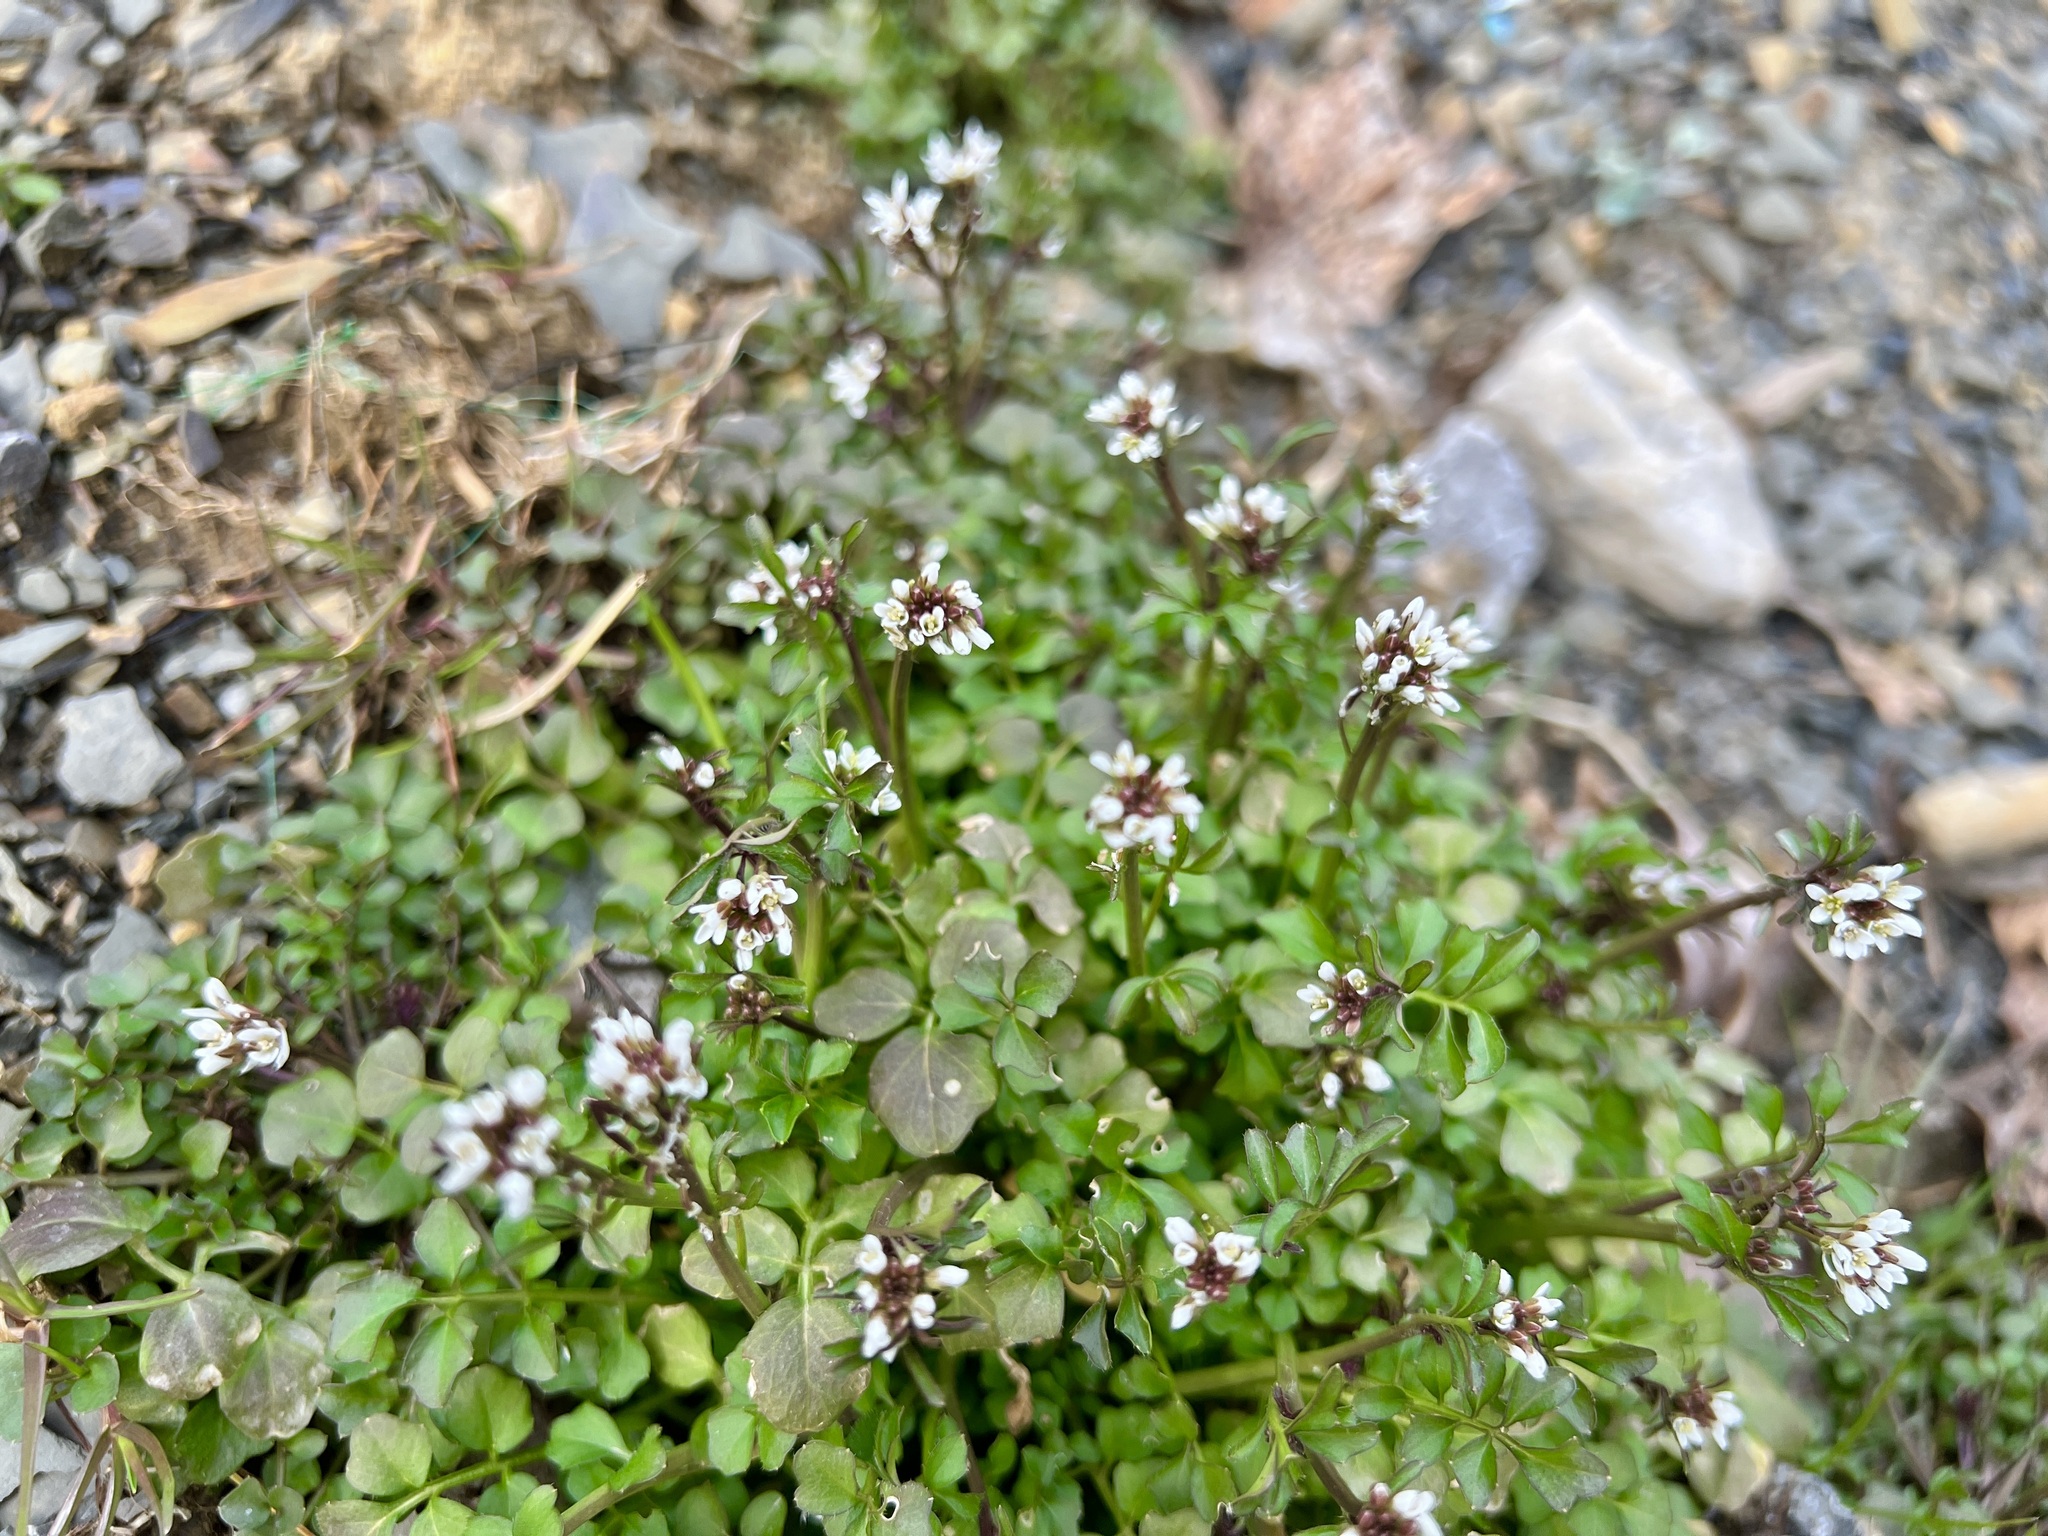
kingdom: Plantae
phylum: Tracheophyta
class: Magnoliopsida
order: Brassicales
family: Brassicaceae
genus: Cardamine
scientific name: Cardamine hirsuta
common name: Hairy bittercress
